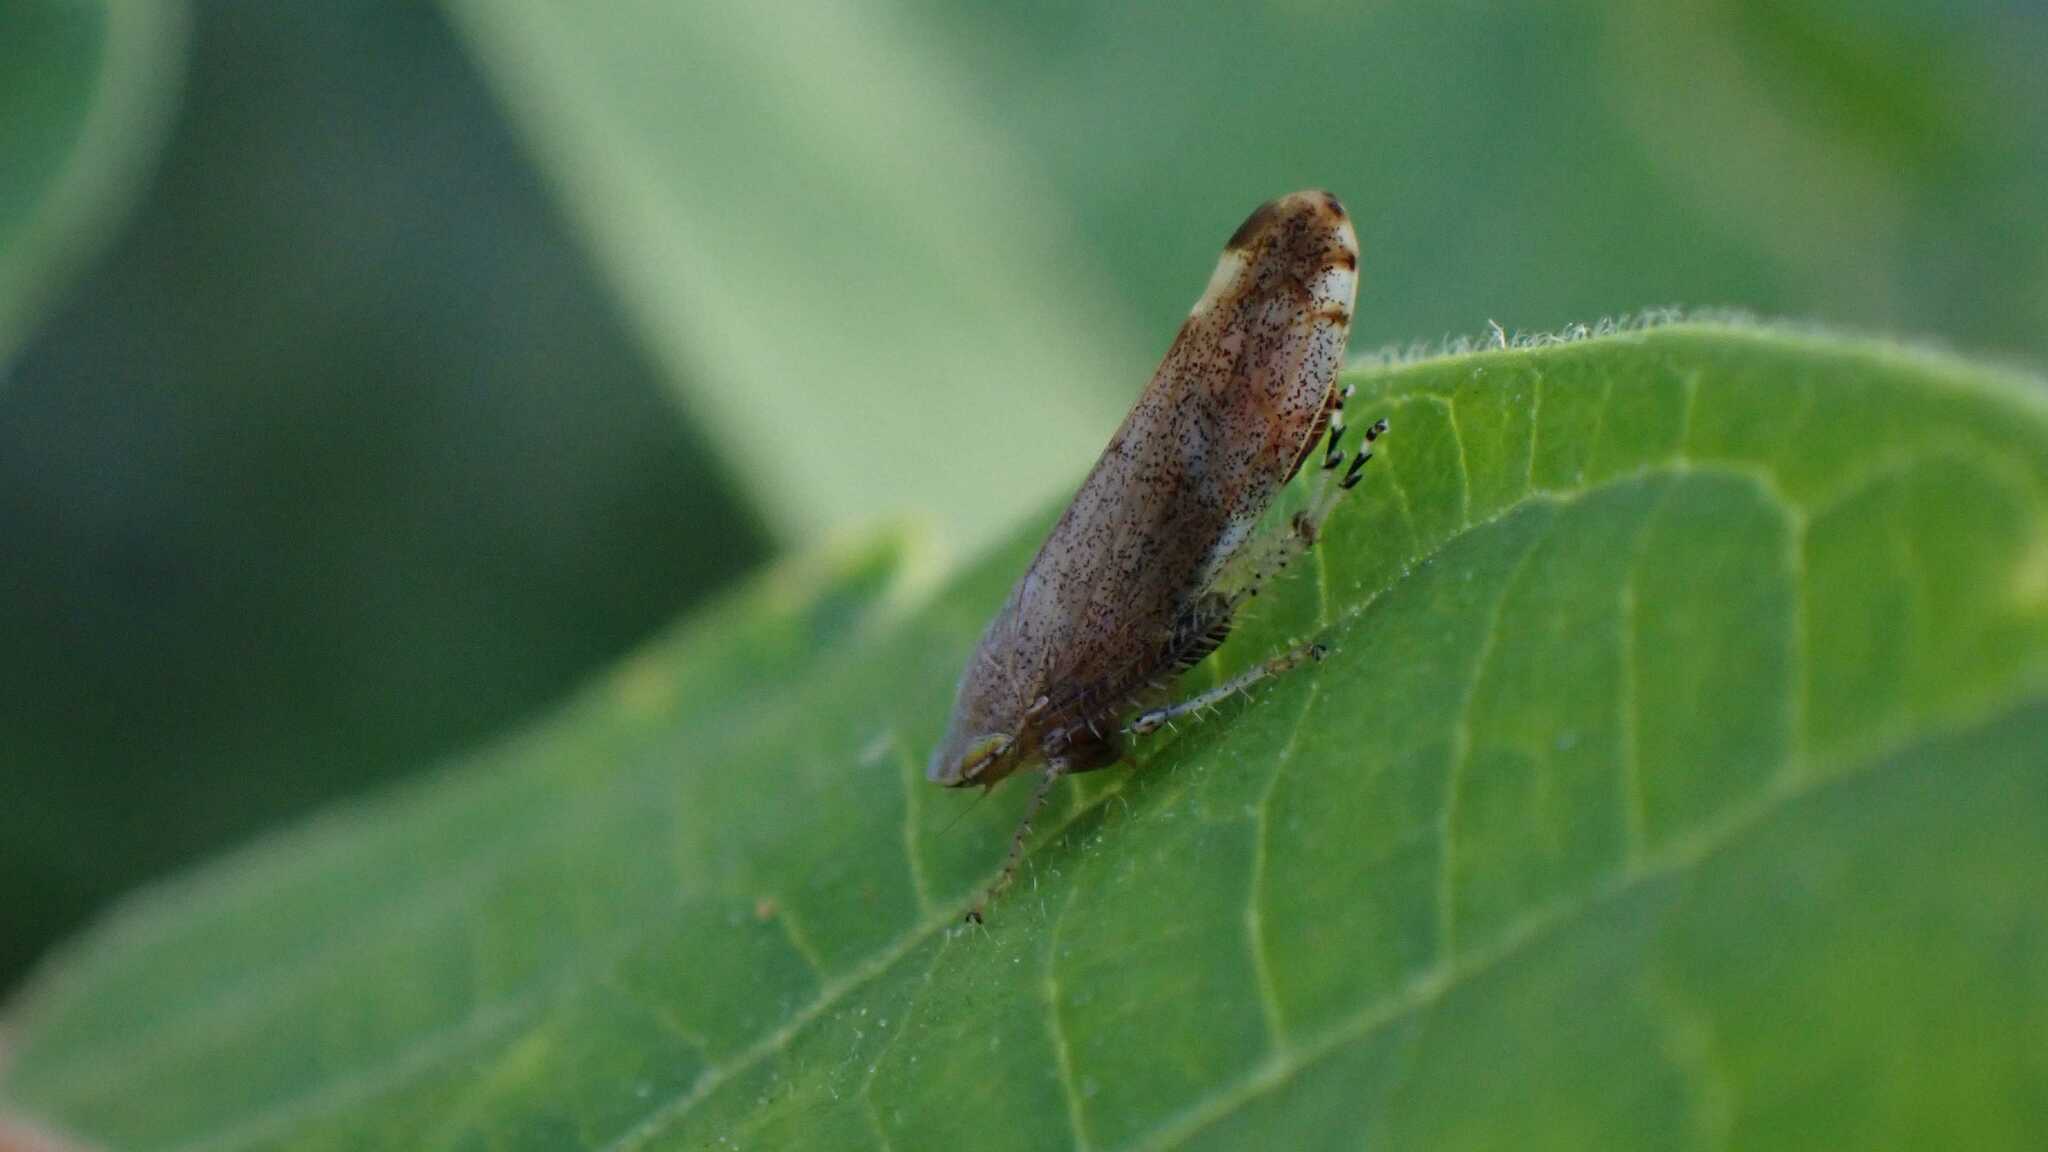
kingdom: Animalia
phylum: Arthropoda
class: Insecta
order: Hemiptera
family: Cicadellidae
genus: Fieberiella
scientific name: Fieberiella
